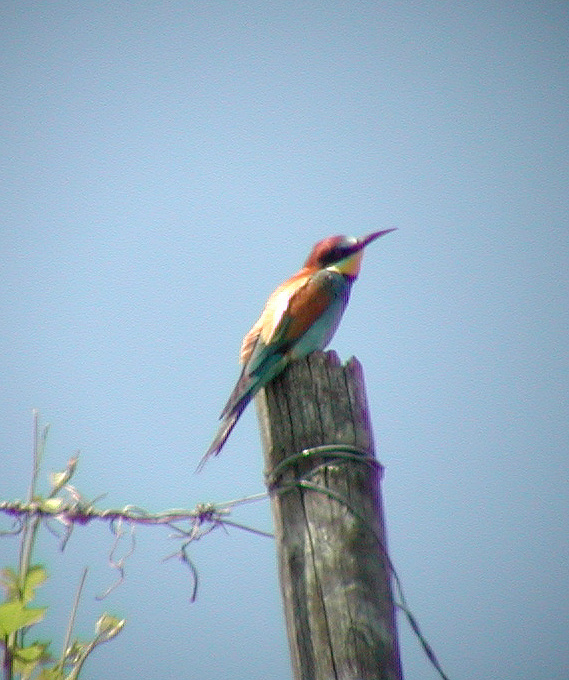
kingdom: Animalia
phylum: Chordata
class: Aves
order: Coraciiformes
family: Meropidae
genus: Merops
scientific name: Merops apiaster
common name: European bee-eater
